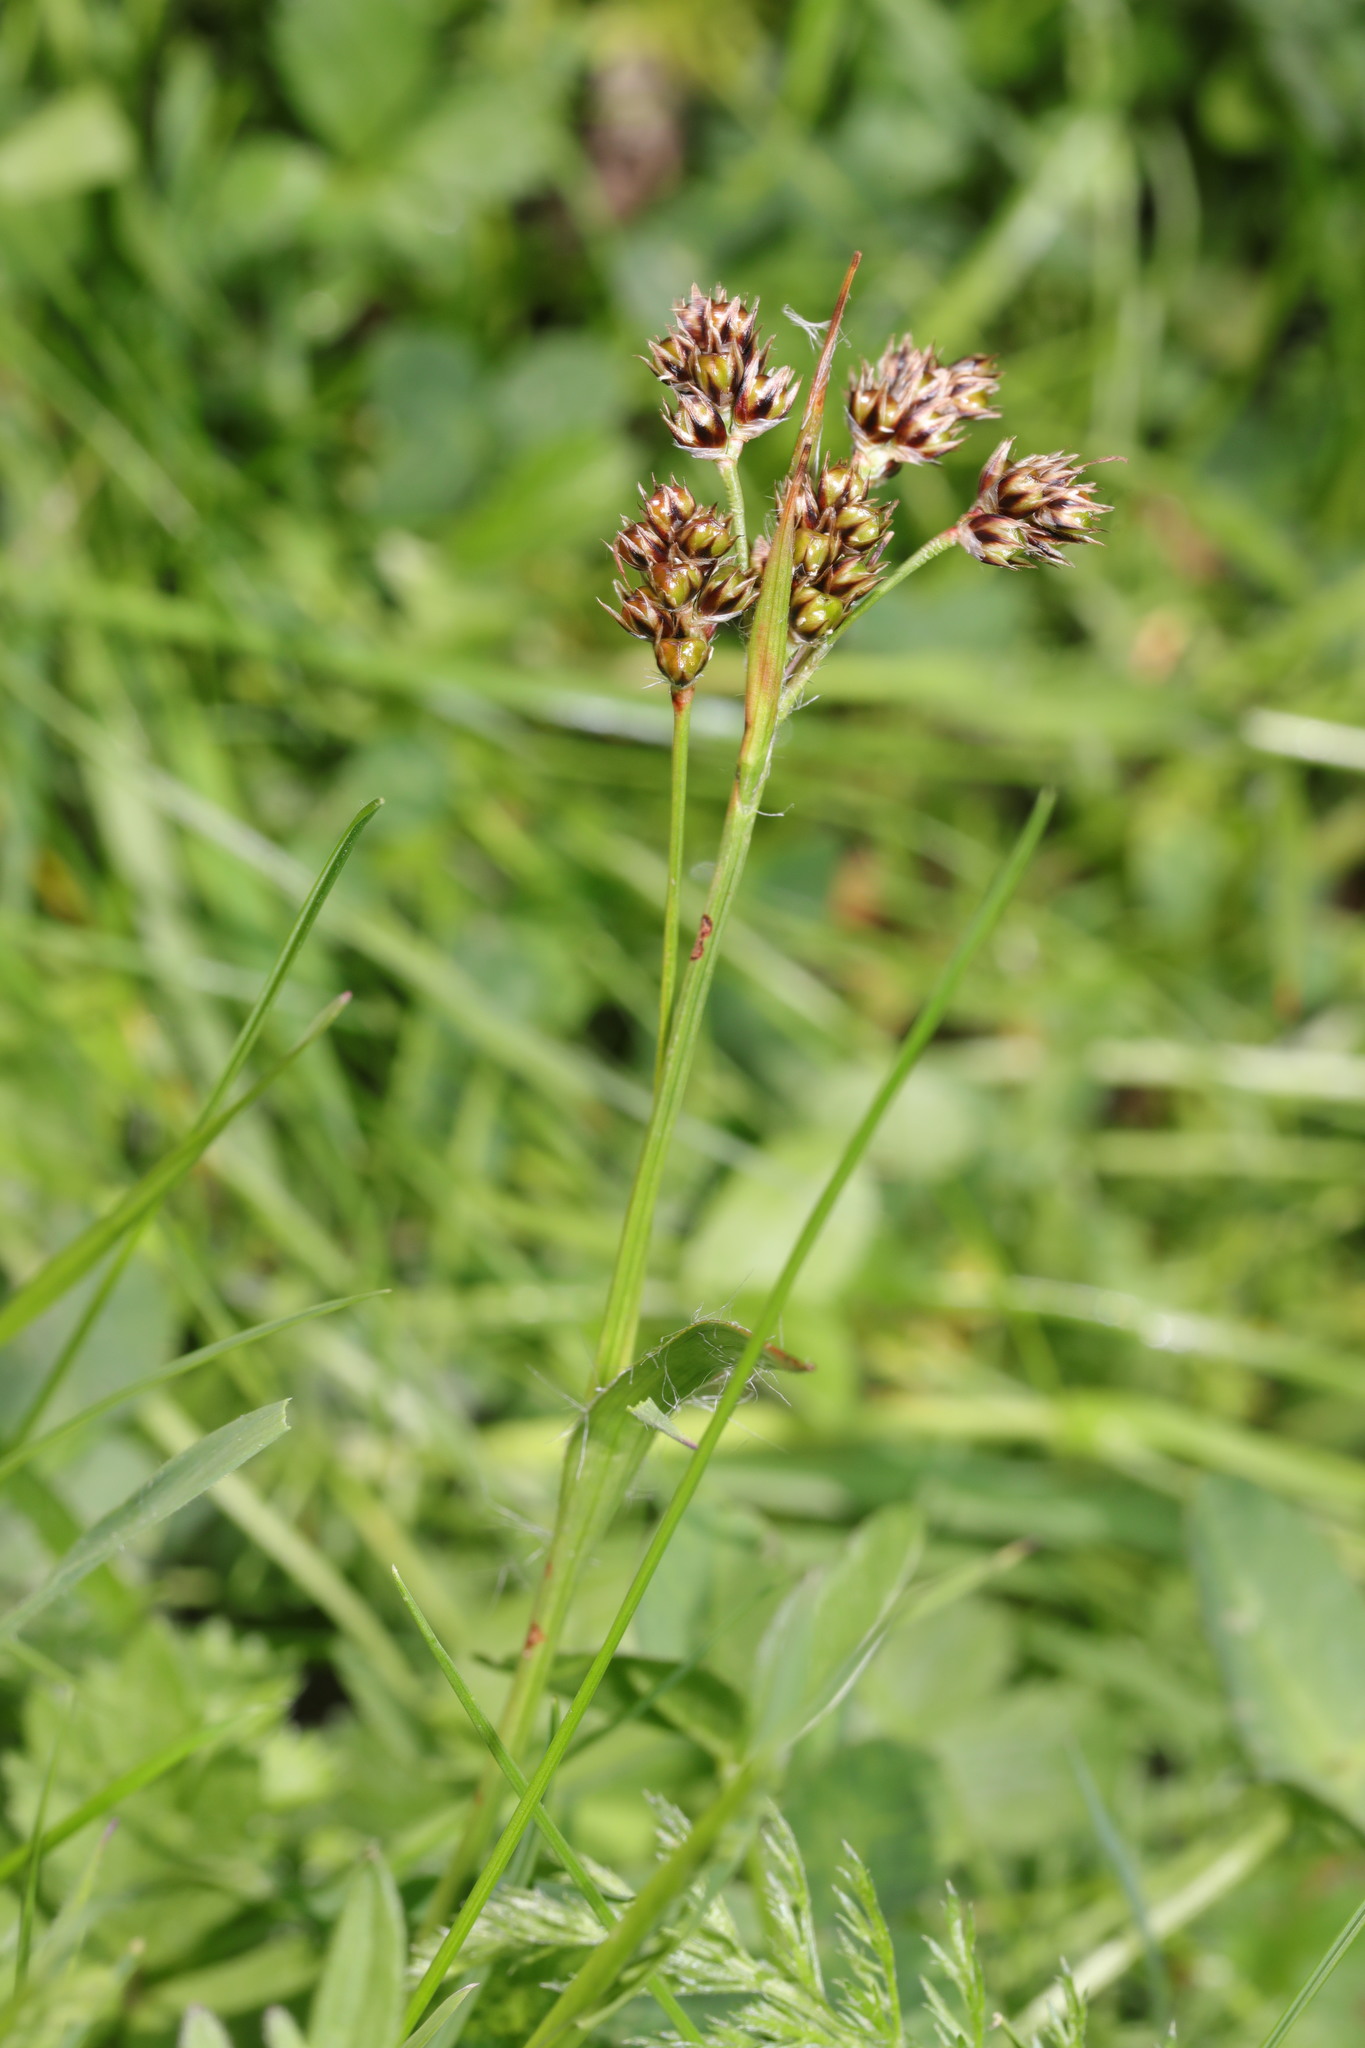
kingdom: Plantae
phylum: Tracheophyta
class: Liliopsida
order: Poales
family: Juncaceae
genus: Luzula
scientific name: Luzula multiflora
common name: Heath wood-rush
